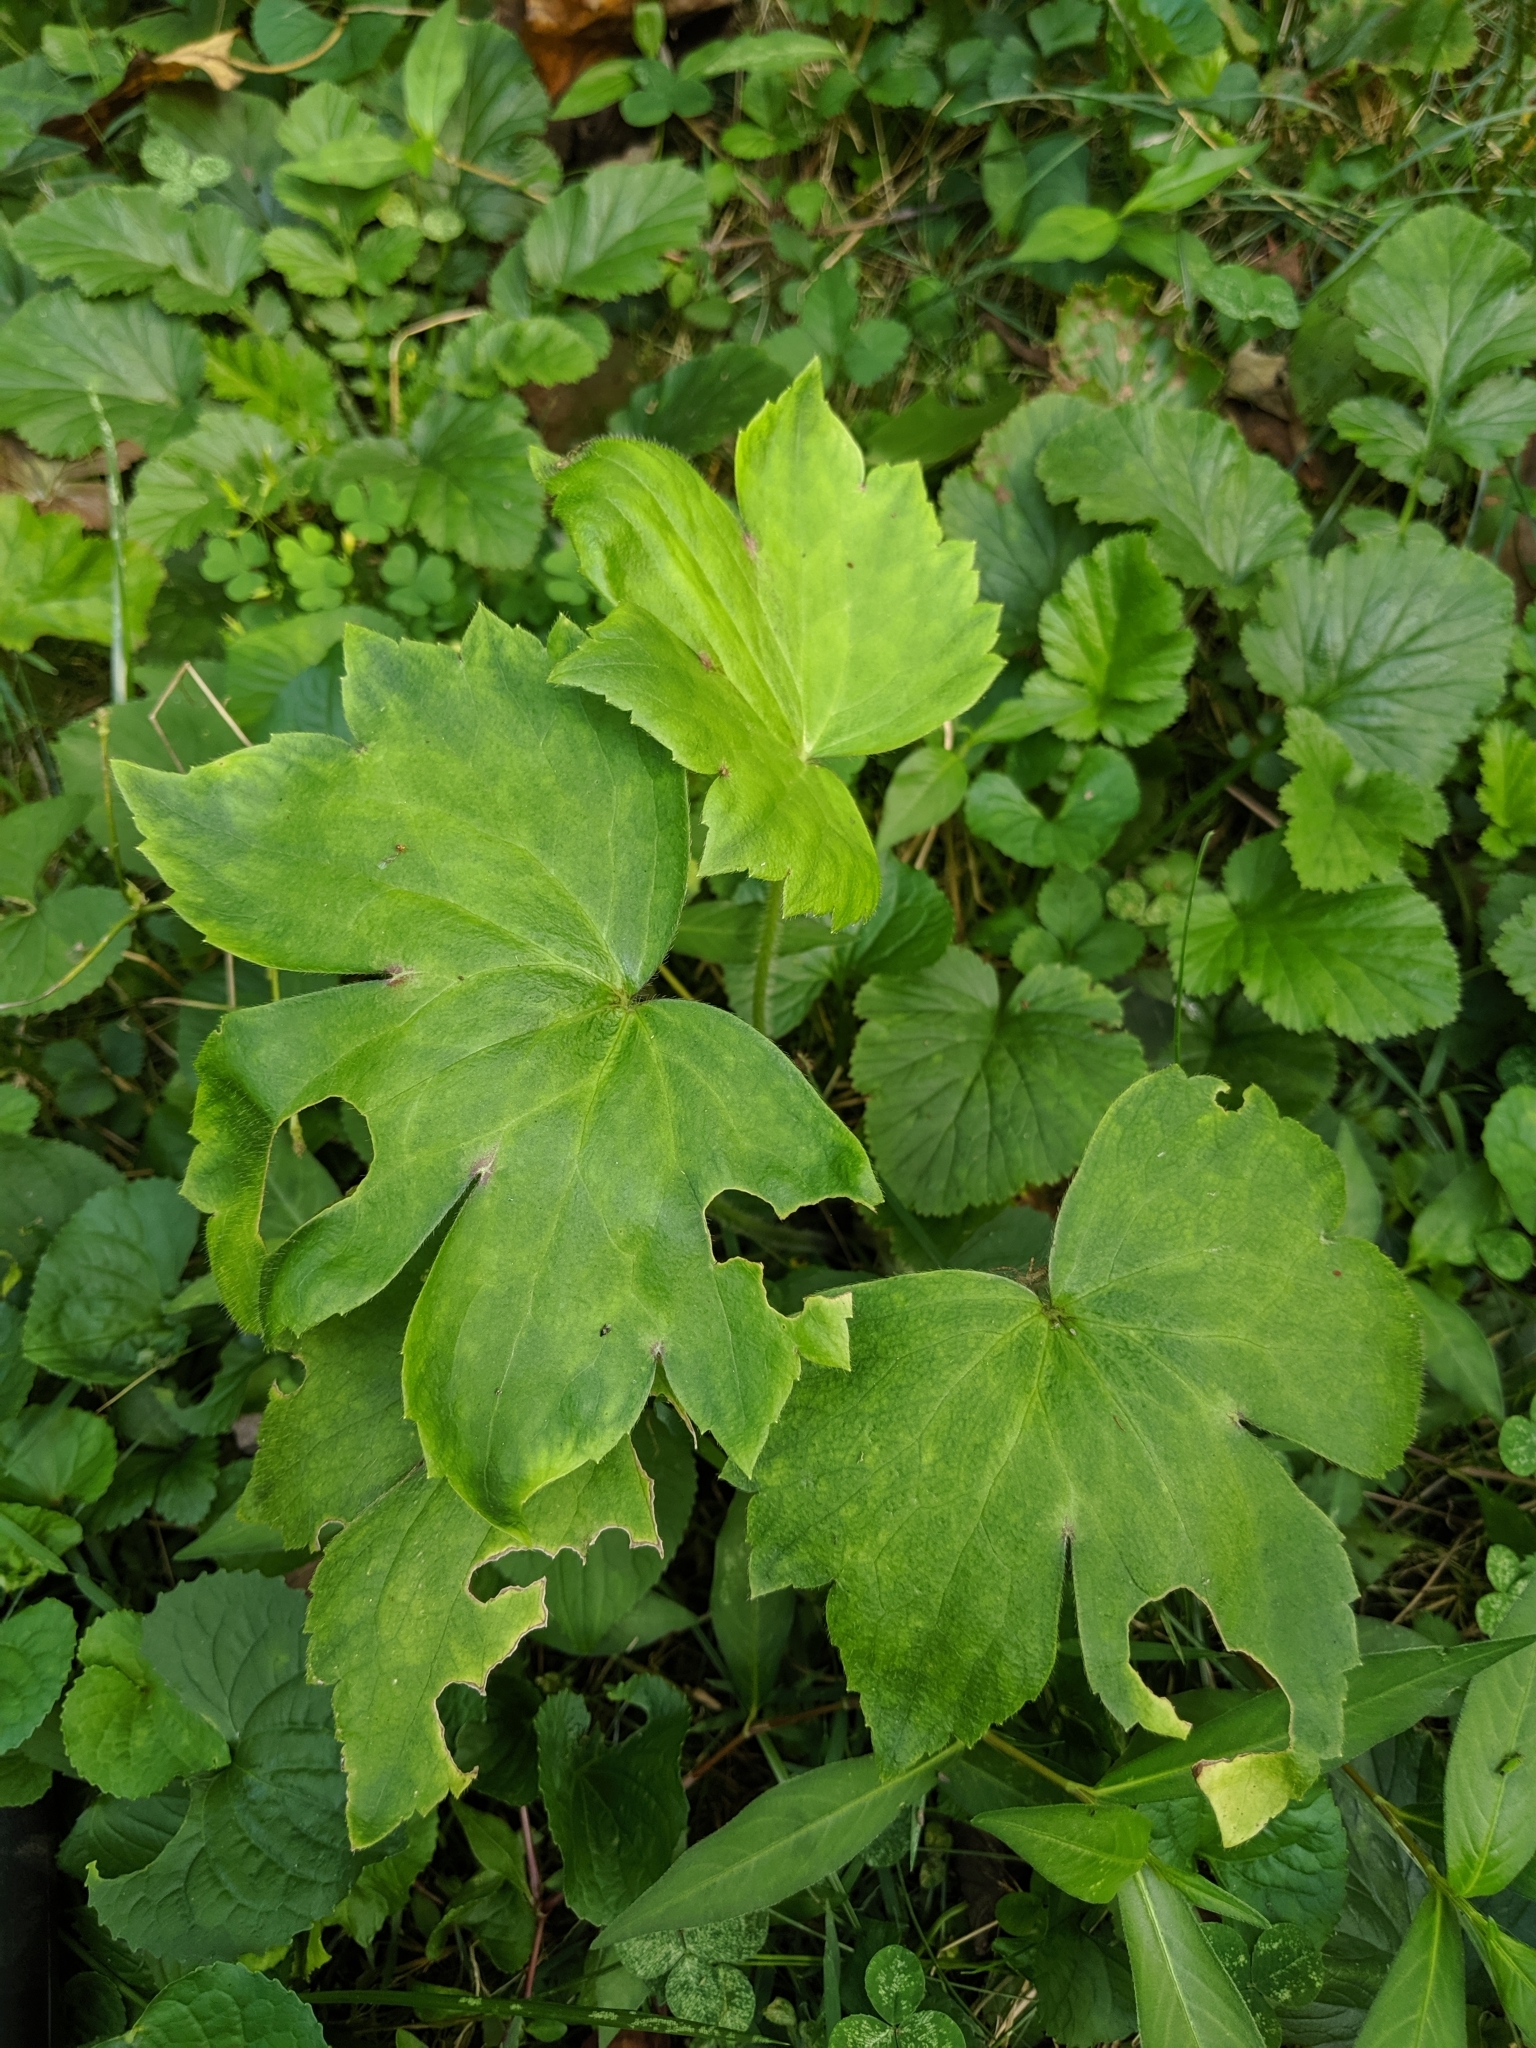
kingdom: Plantae
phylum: Tracheophyta
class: Magnoliopsida
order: Ranunculales
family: Ranunculaceae
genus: Ranunculus
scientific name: Ranunculus recurvatus
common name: Blisterwort
